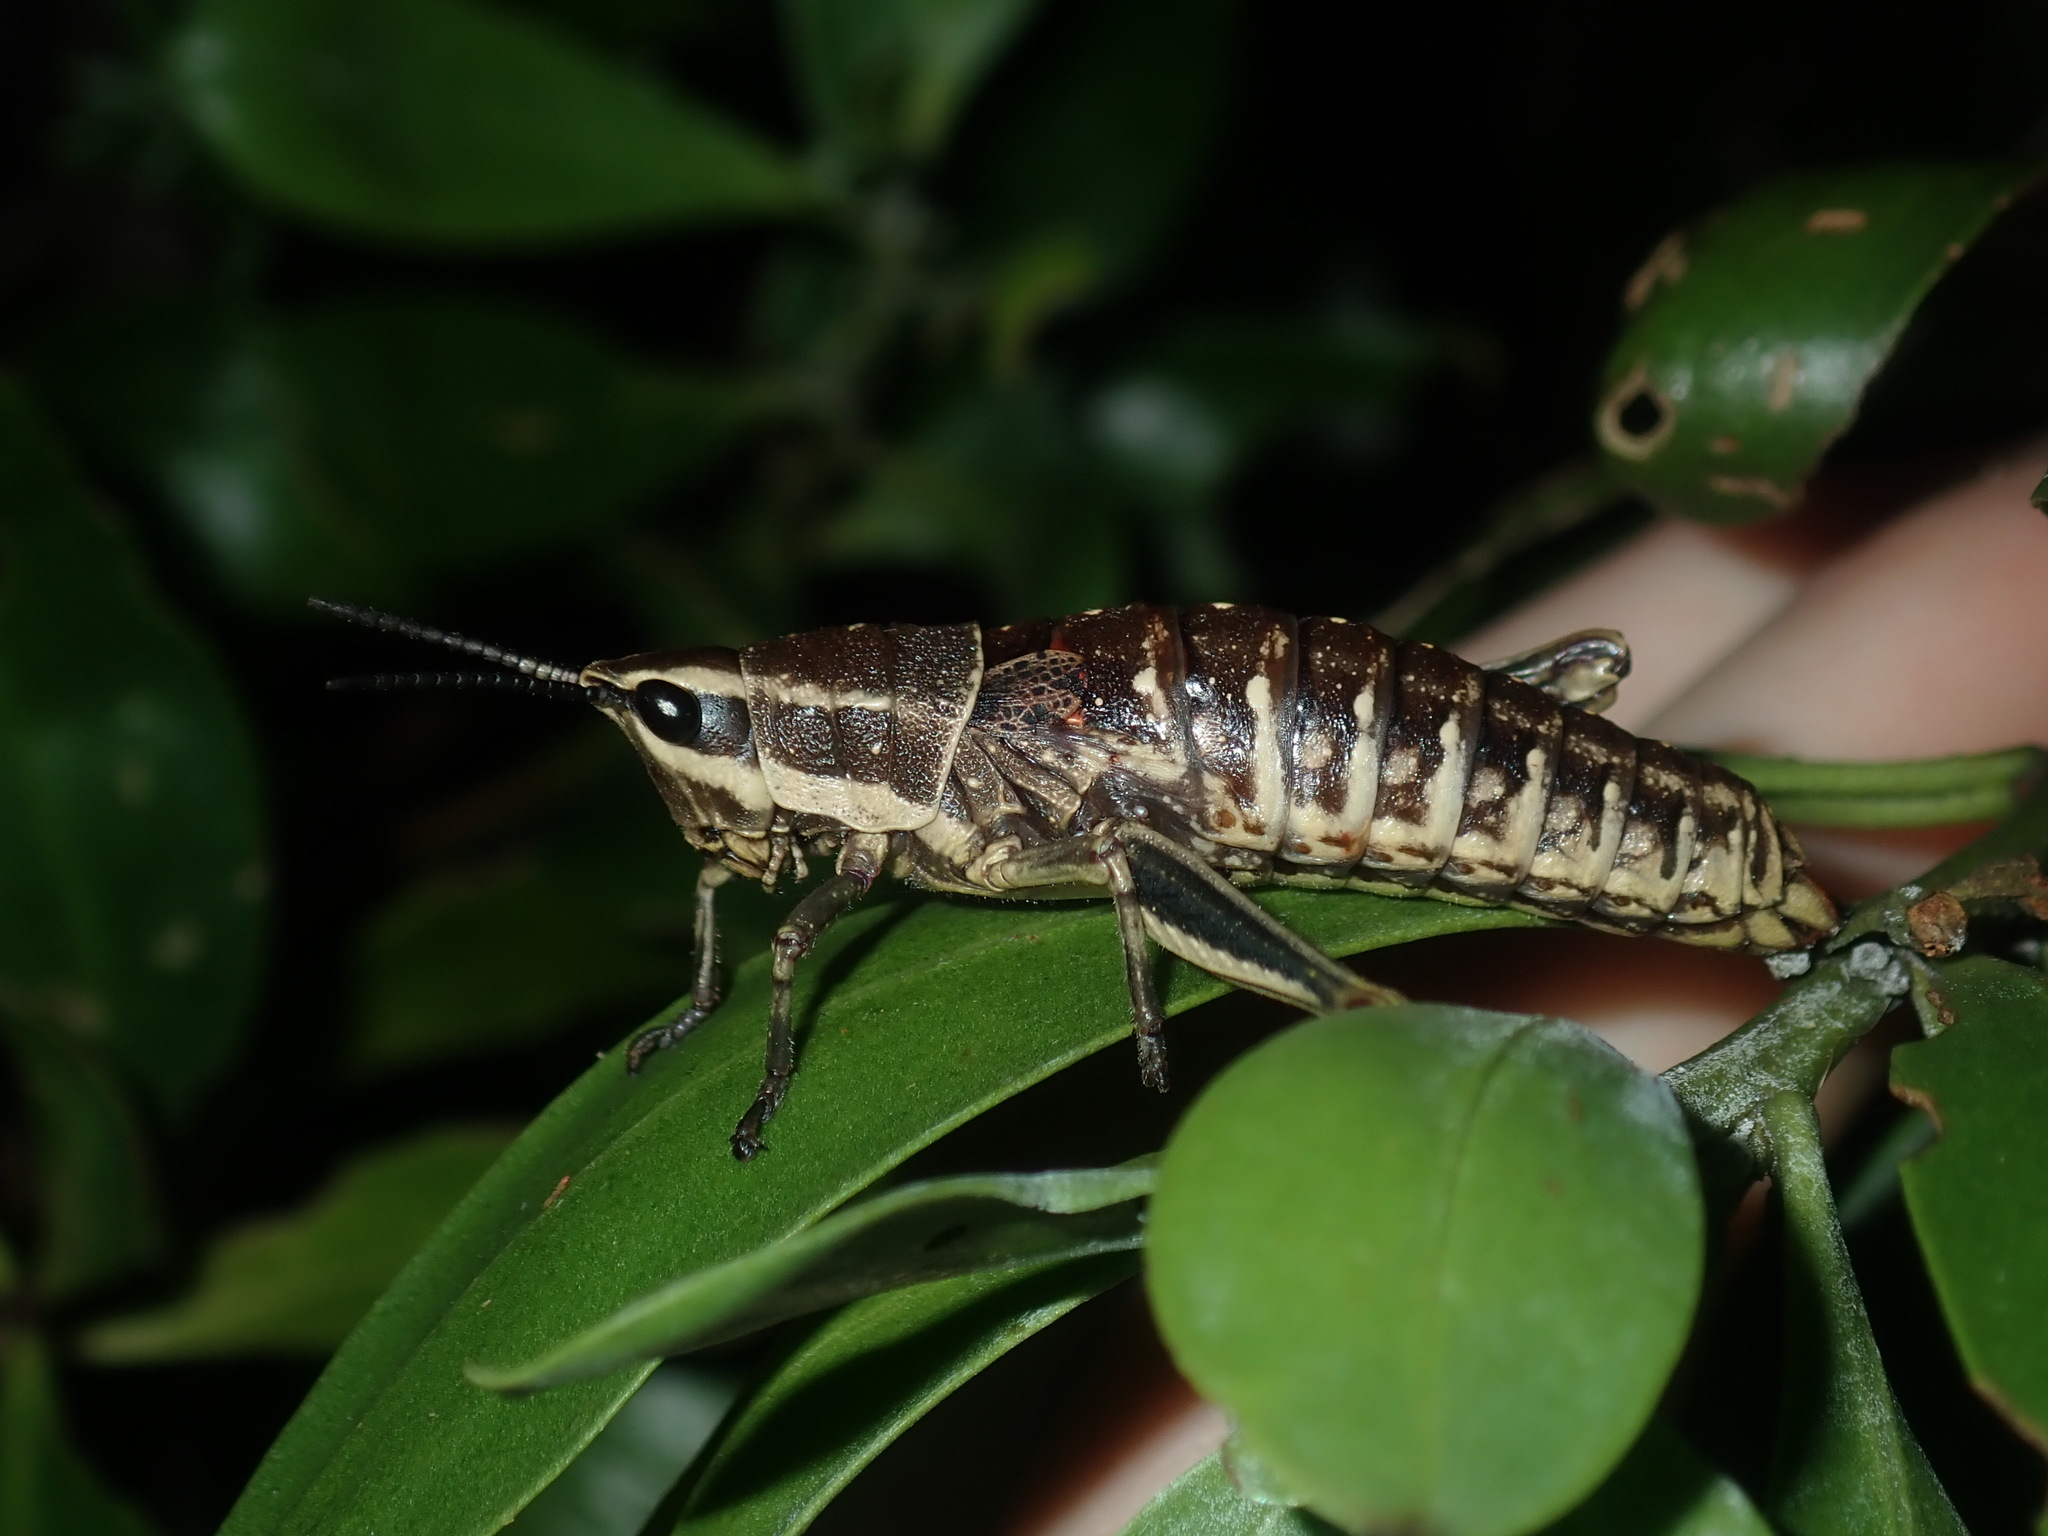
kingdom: Animalia
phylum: Arthropoda
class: Insecta
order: Orthoptera
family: Pyrgomorphidae
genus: Monistria
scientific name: Monistria concinna
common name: Southern pyrgomorph
